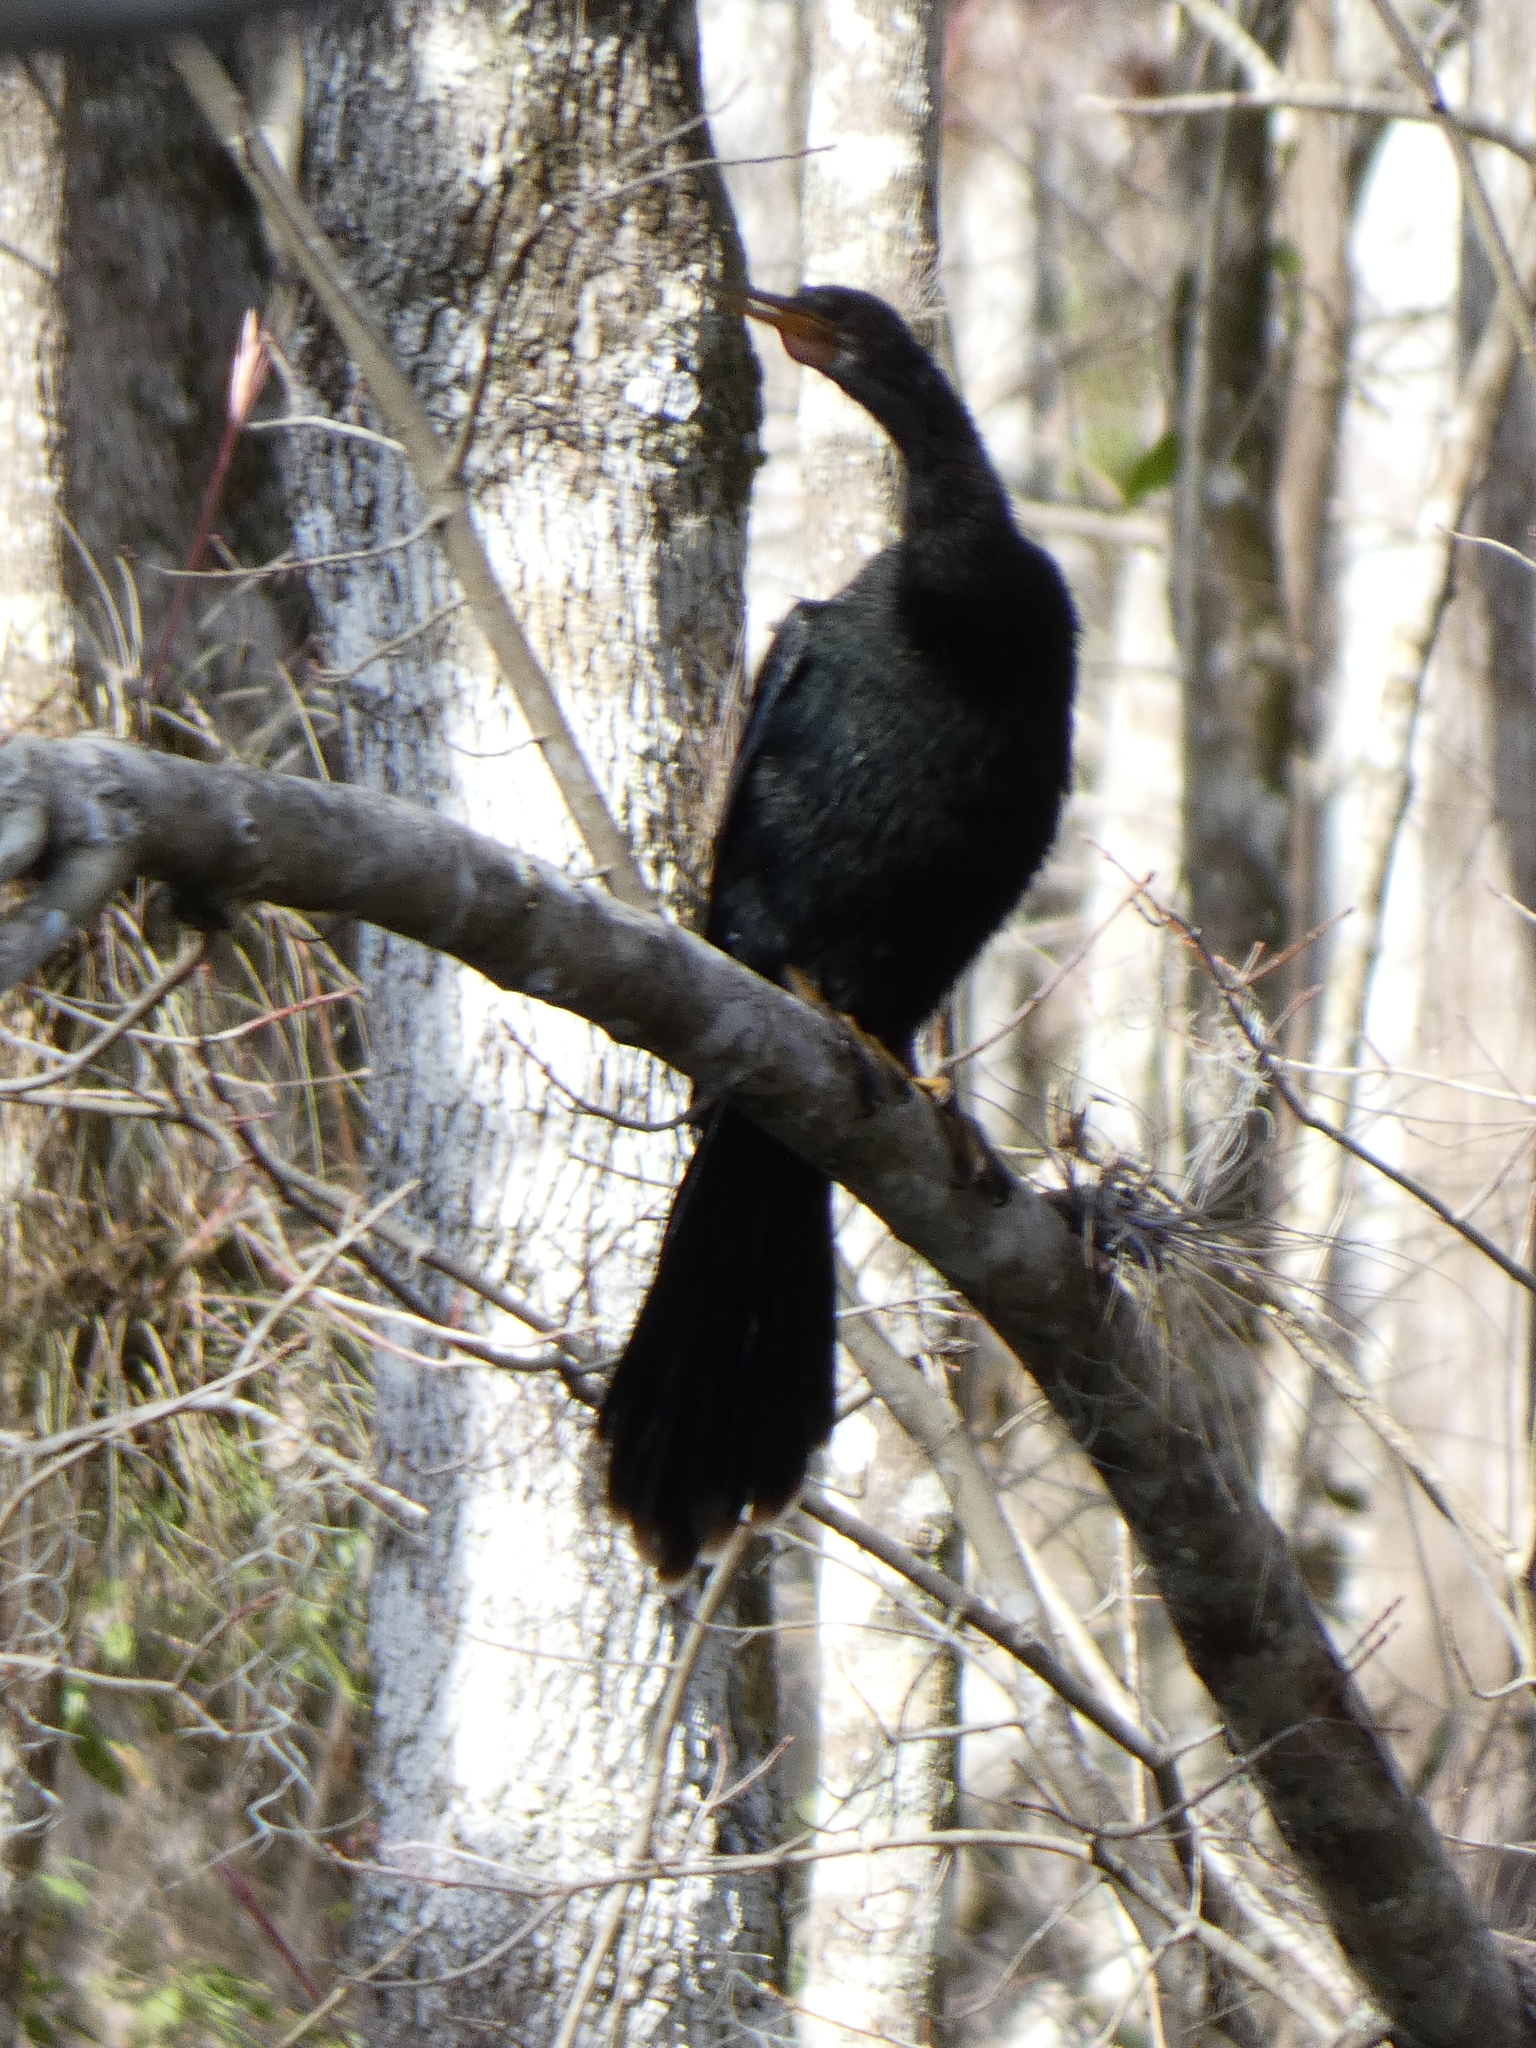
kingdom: Animalia
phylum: Chordata
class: Aves
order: Suliformes
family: Anhingidae
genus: Anhinga
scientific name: Anhinga anhinga
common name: Anhinga
